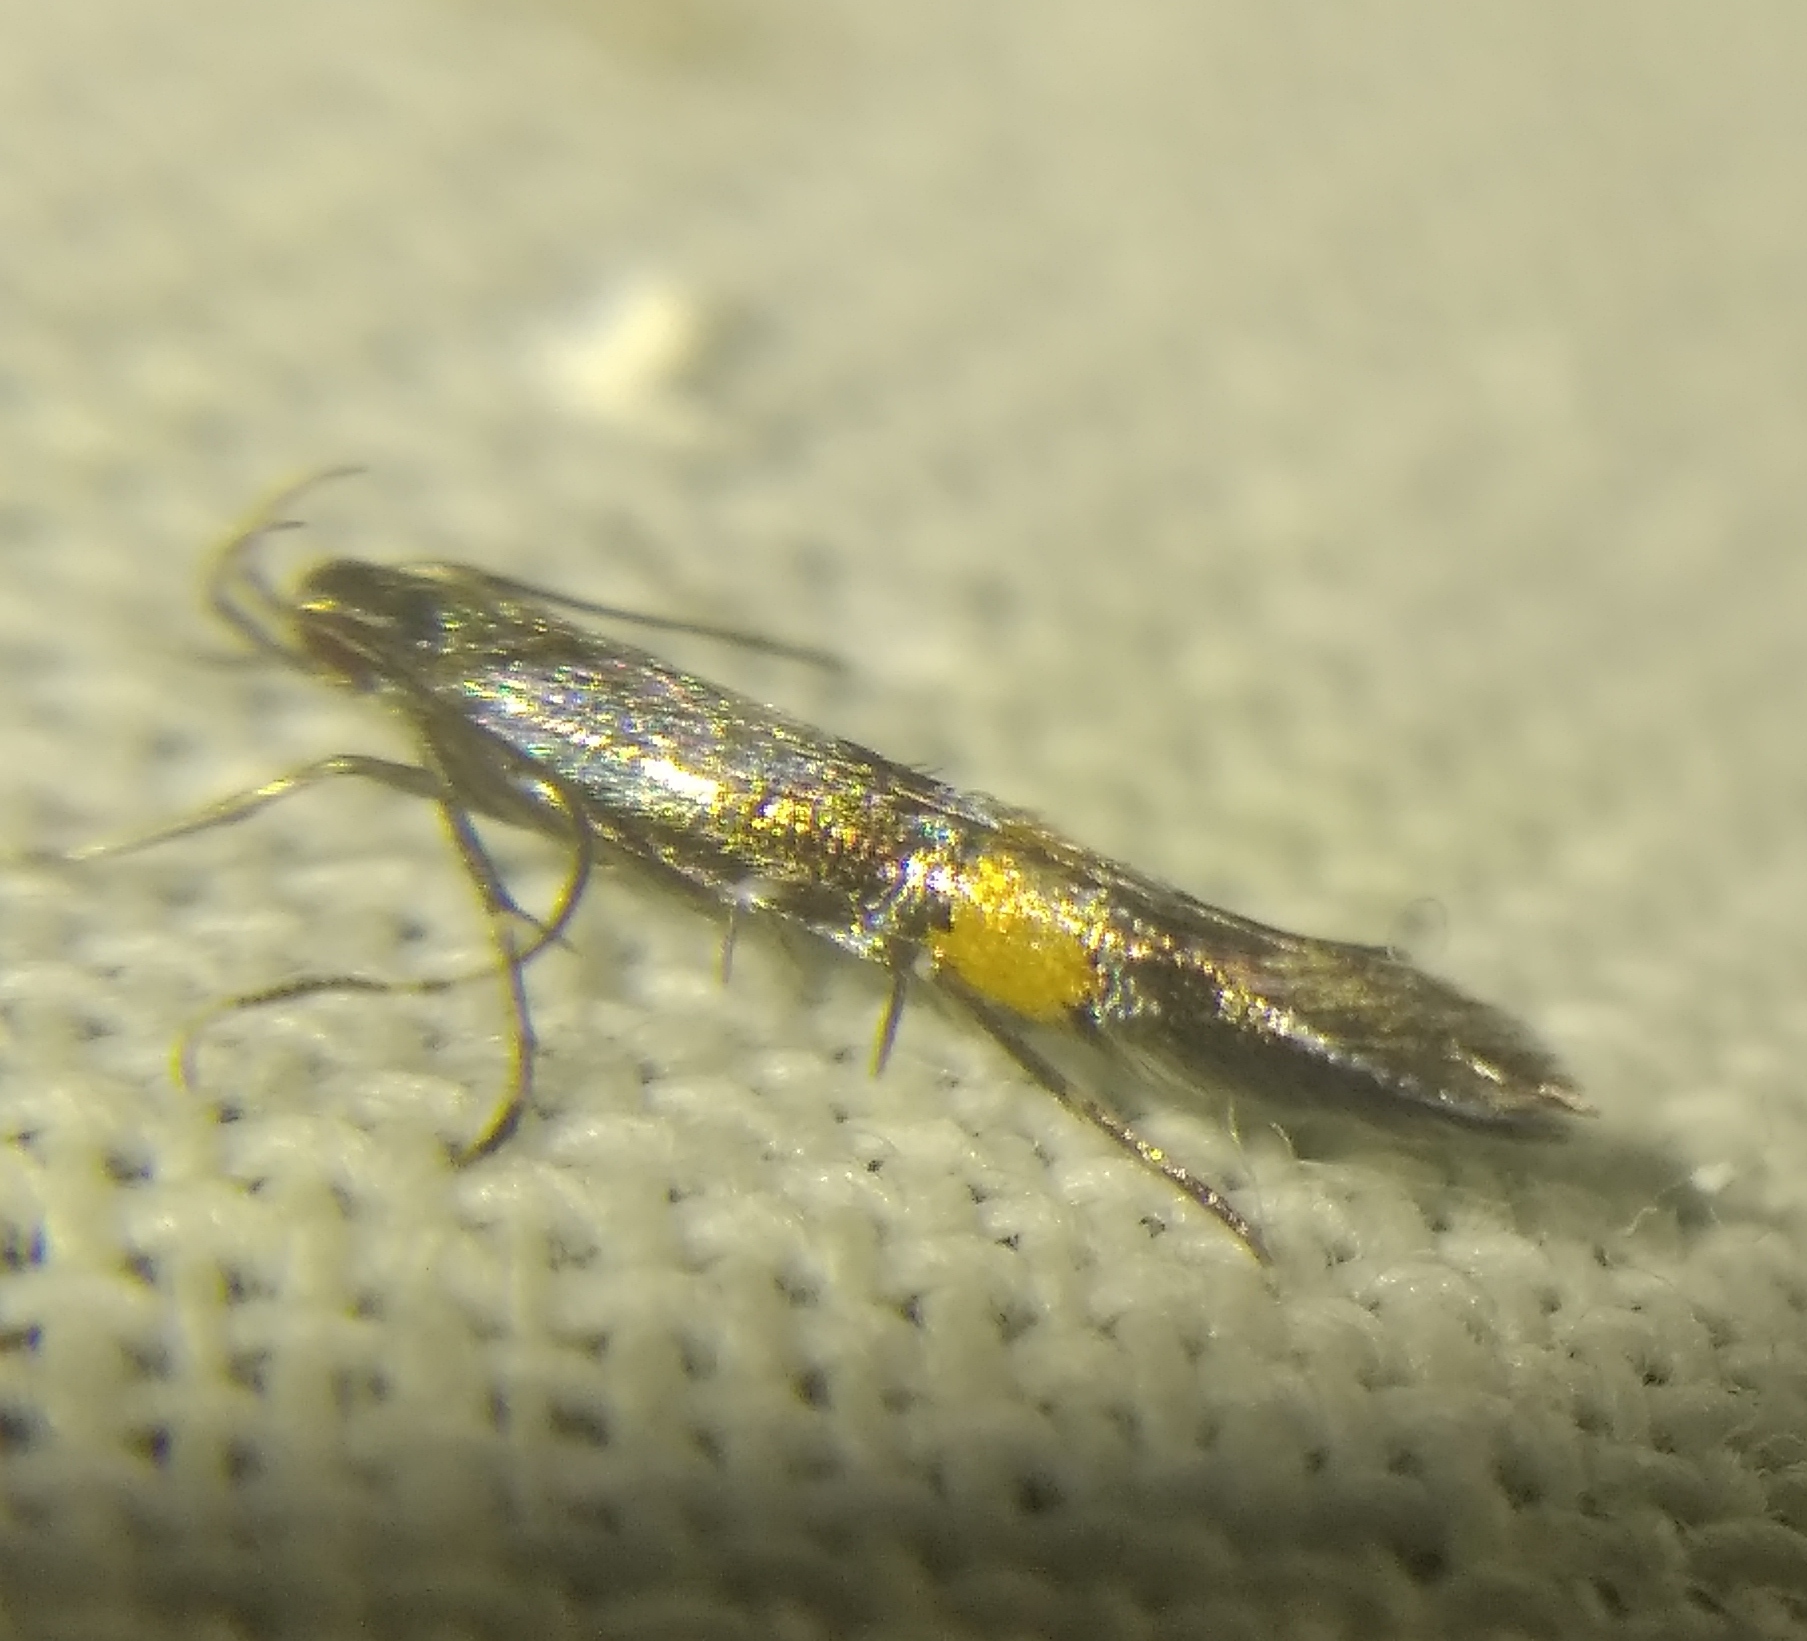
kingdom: Animalia
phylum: Arthropoda
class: Insecta
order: Lepidoptera
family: Cosmopterigidae
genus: Cosmopterix
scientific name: Cosmopterix orichalcea
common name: Marsh cosmet
